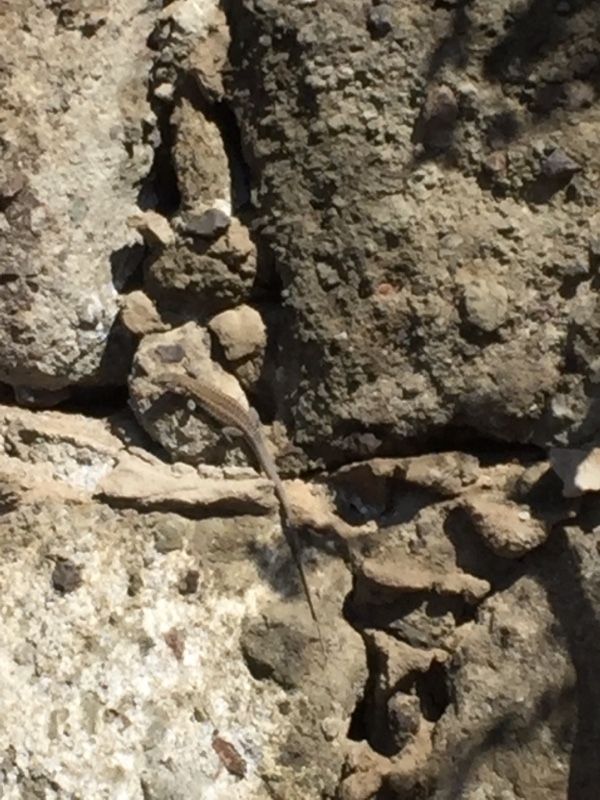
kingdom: Animalia
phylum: Chordata
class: Squamata
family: Lacertidae
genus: Gallotia
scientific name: Gallotia stehlini
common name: Gran canaria giant lizard
